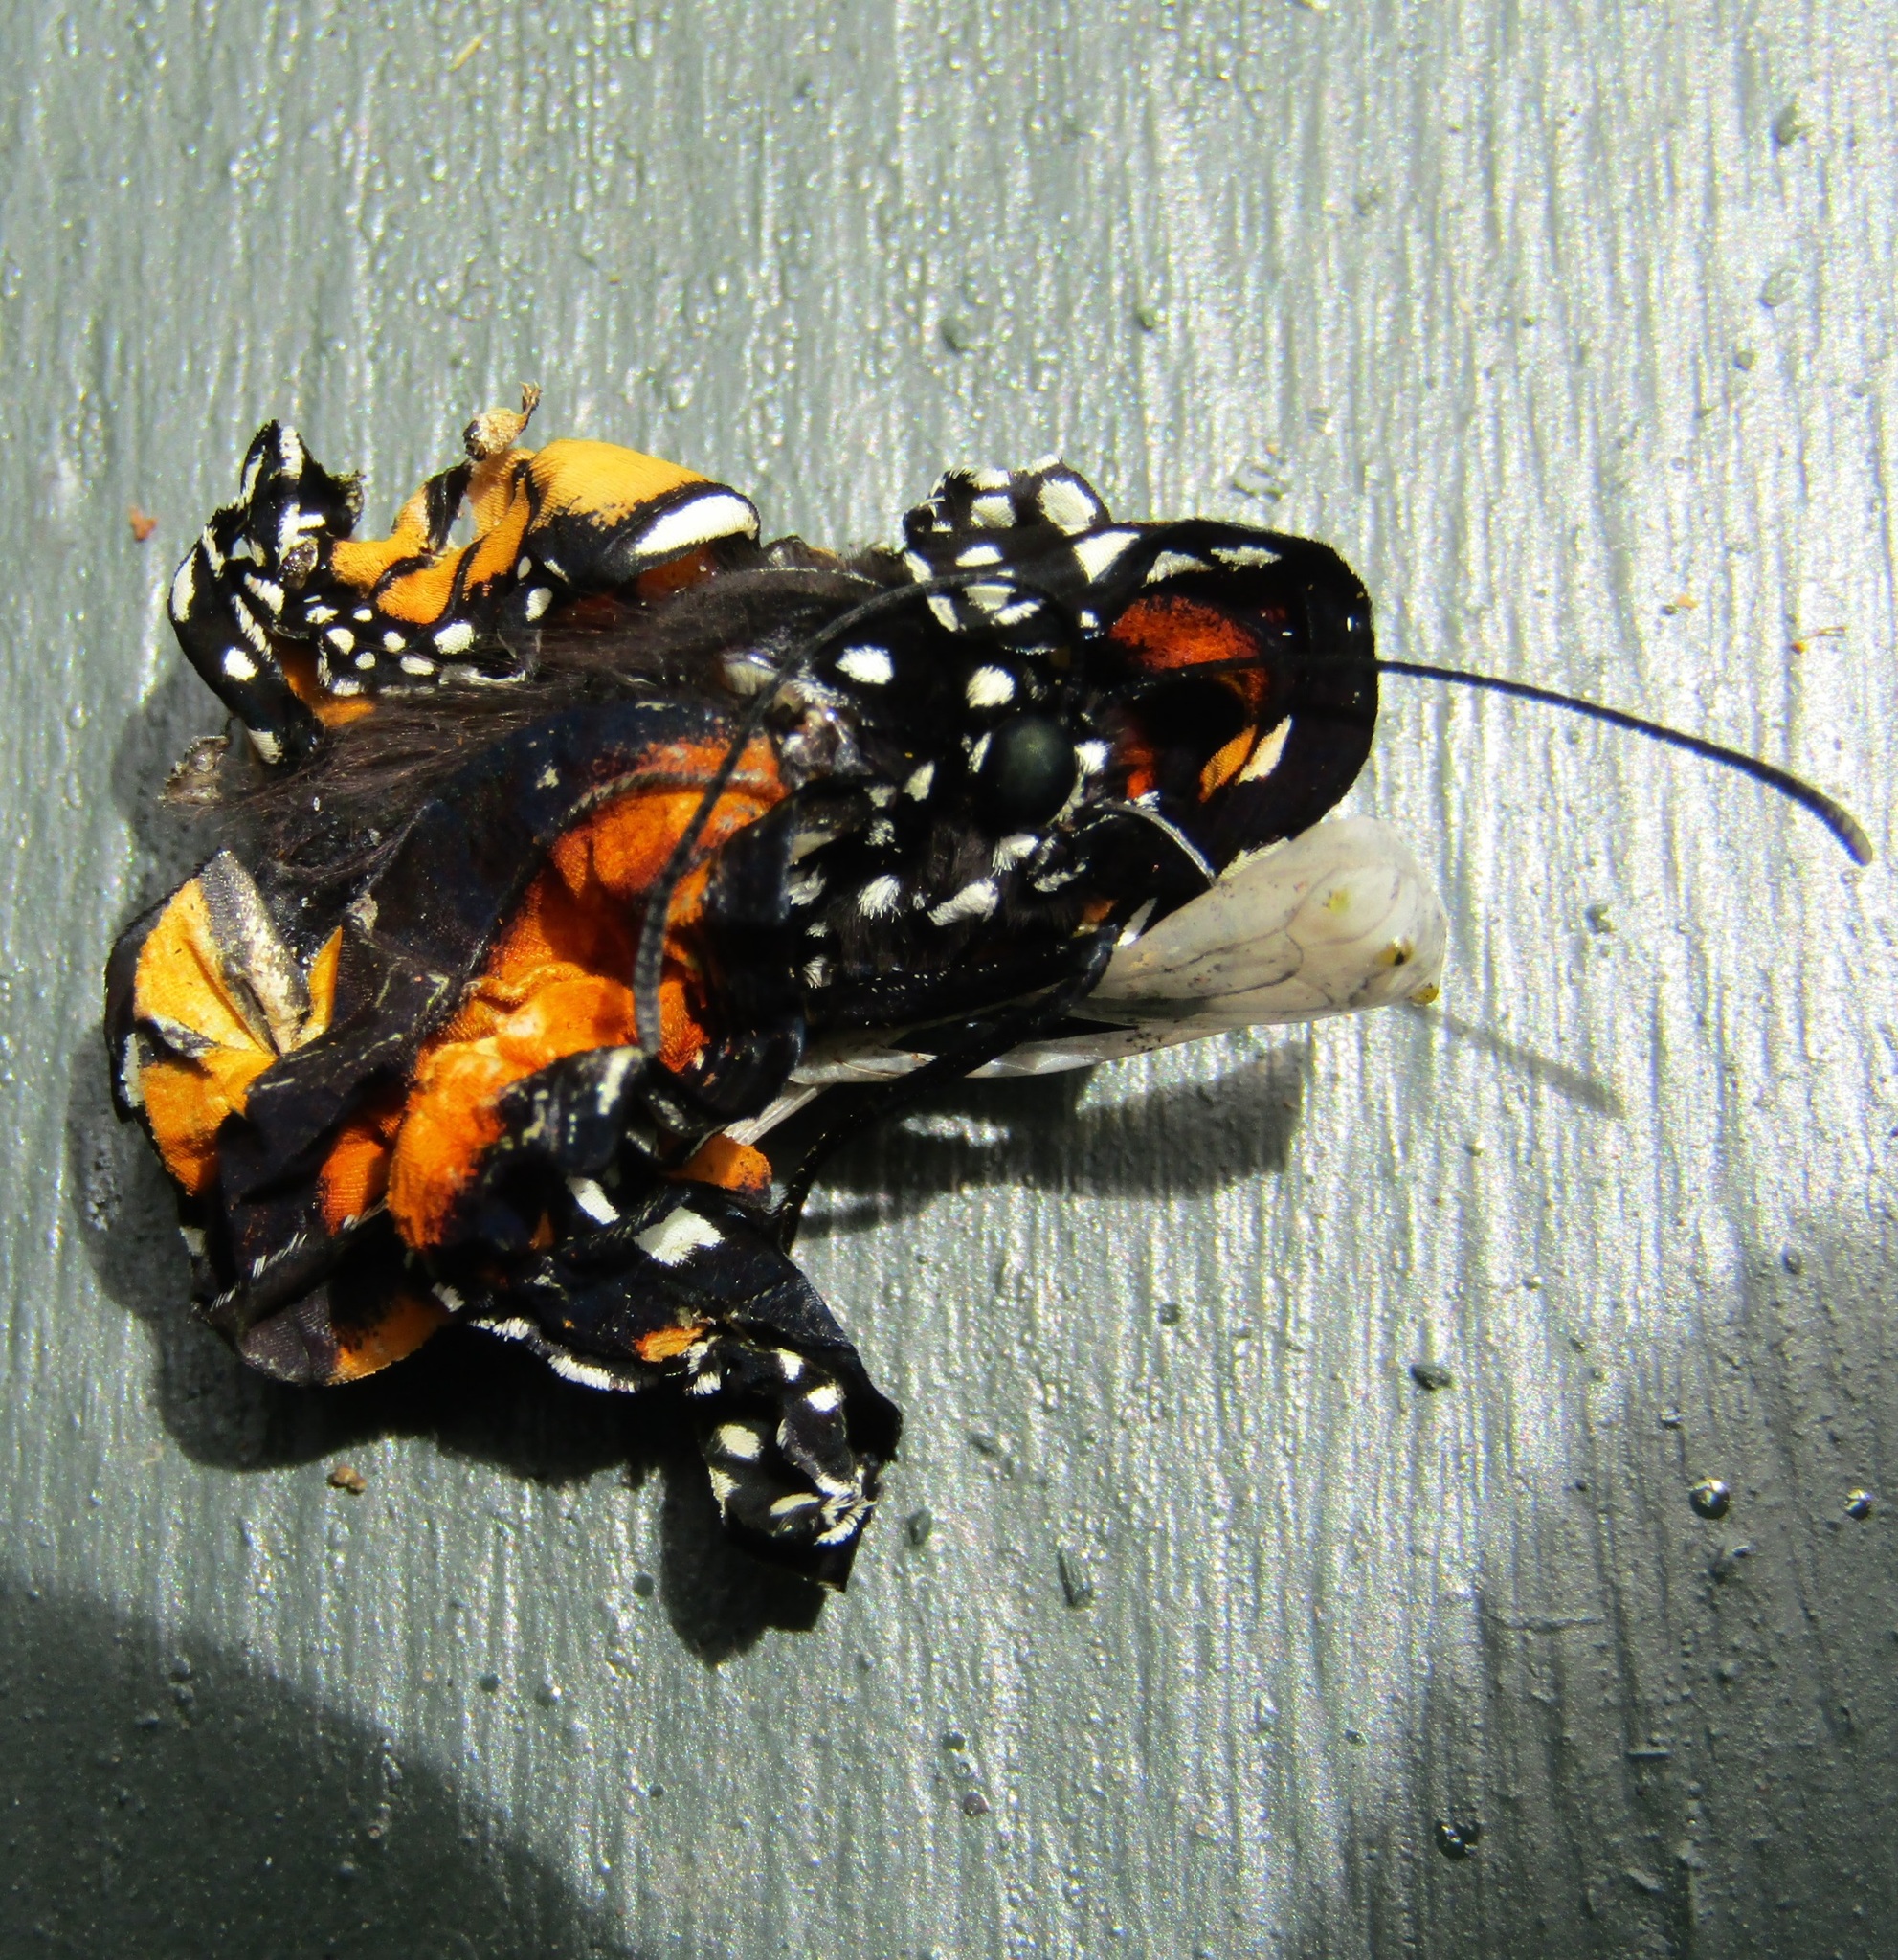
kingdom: Animalia
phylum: Arthropoda
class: Insecta
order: Lepidoptera
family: Nymphalidae
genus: Danaus
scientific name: Danaus plexippus
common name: Monarch
